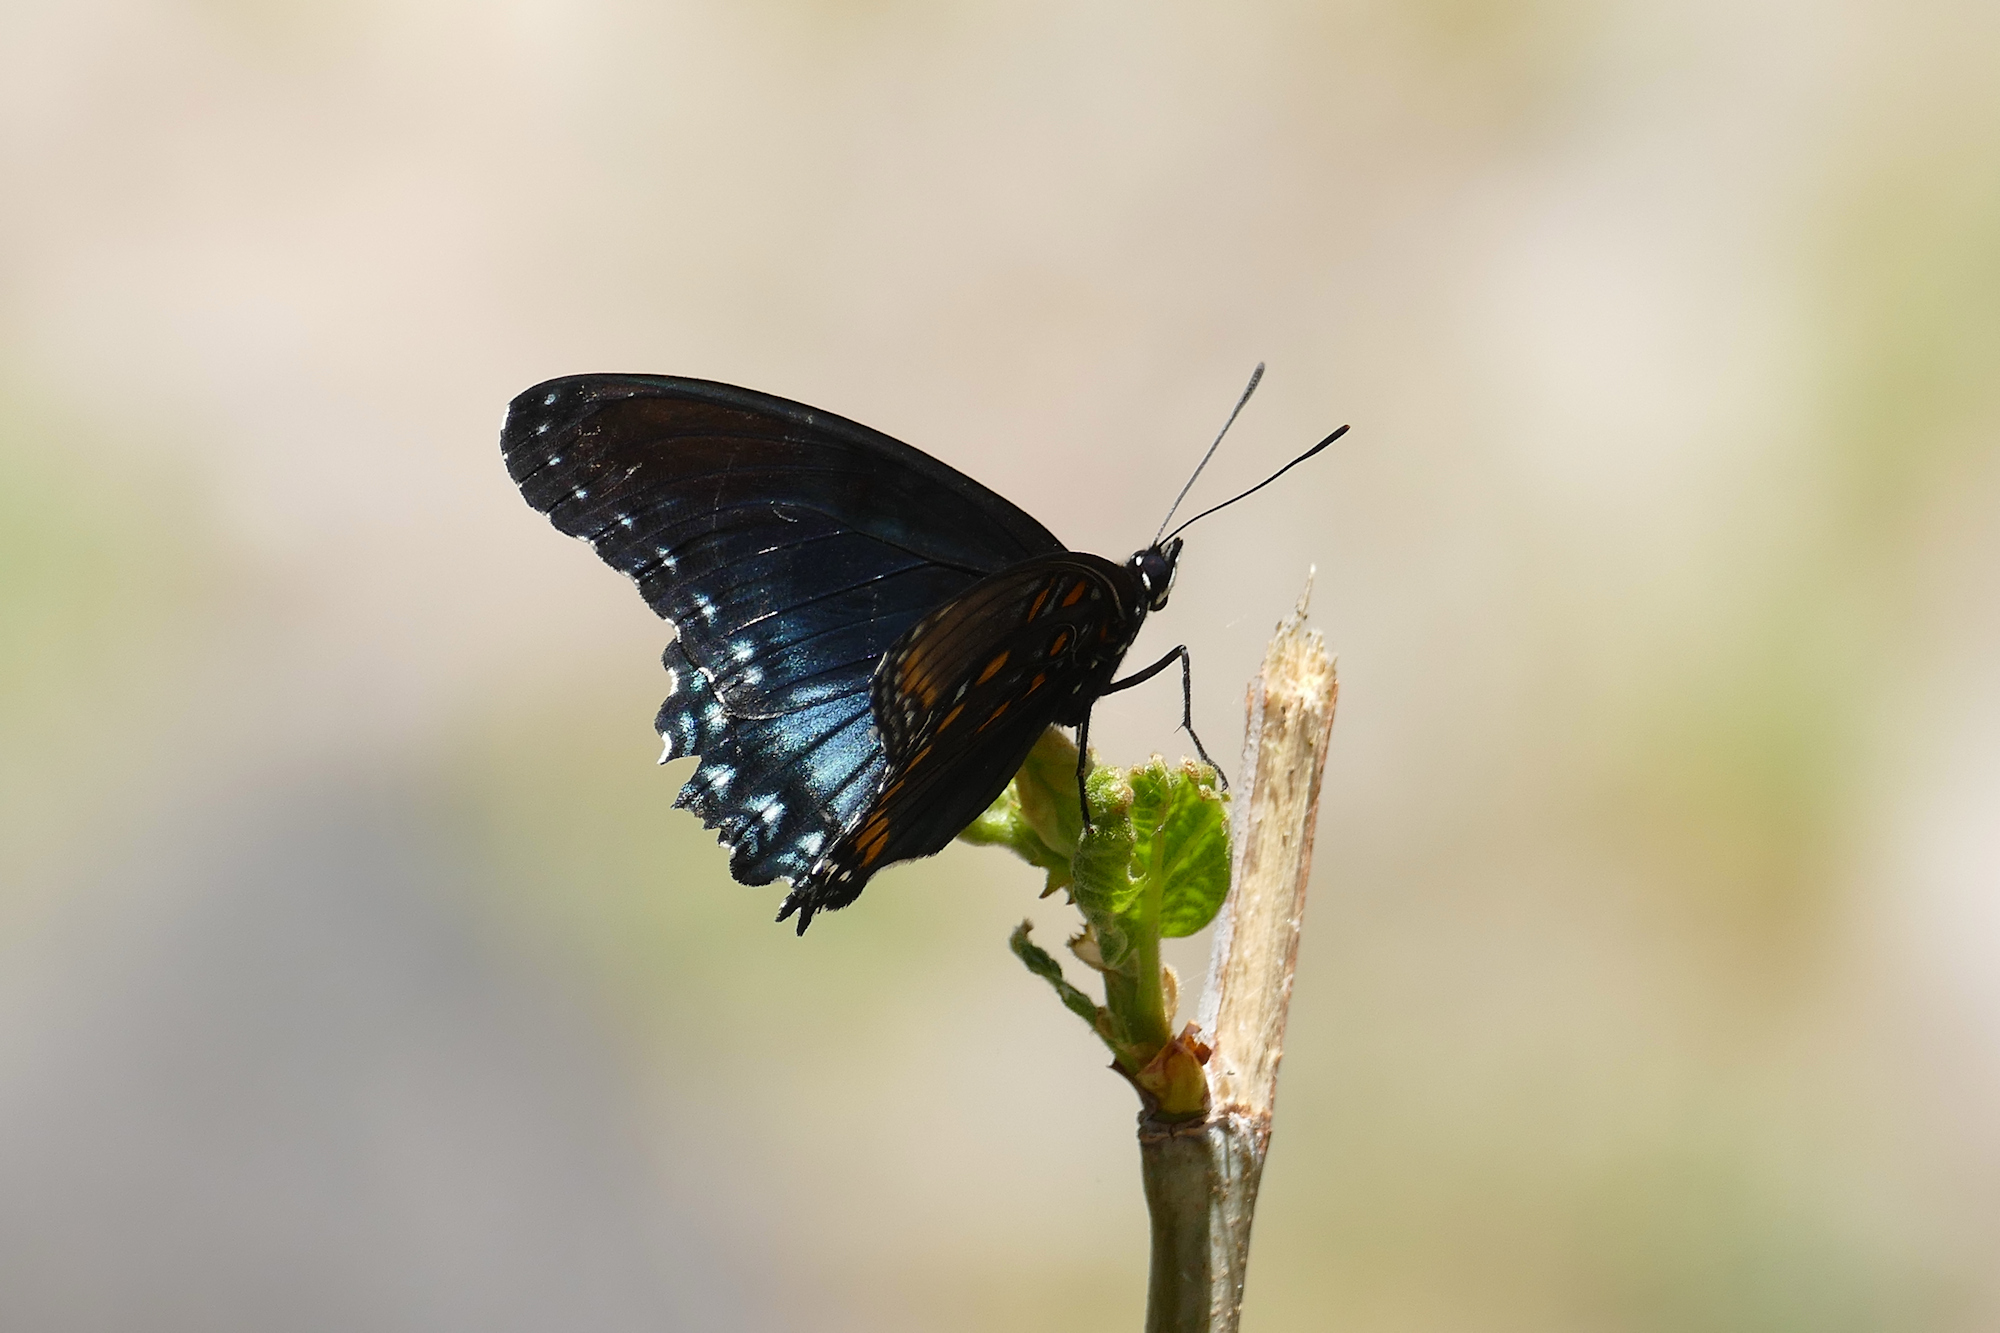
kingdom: Animalia
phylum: Arthropoda
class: Insecta
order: Lepidoptera
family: Nymphalidae
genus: Limenitis
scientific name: Limenitis arthemis
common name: Red-spotted admiral
